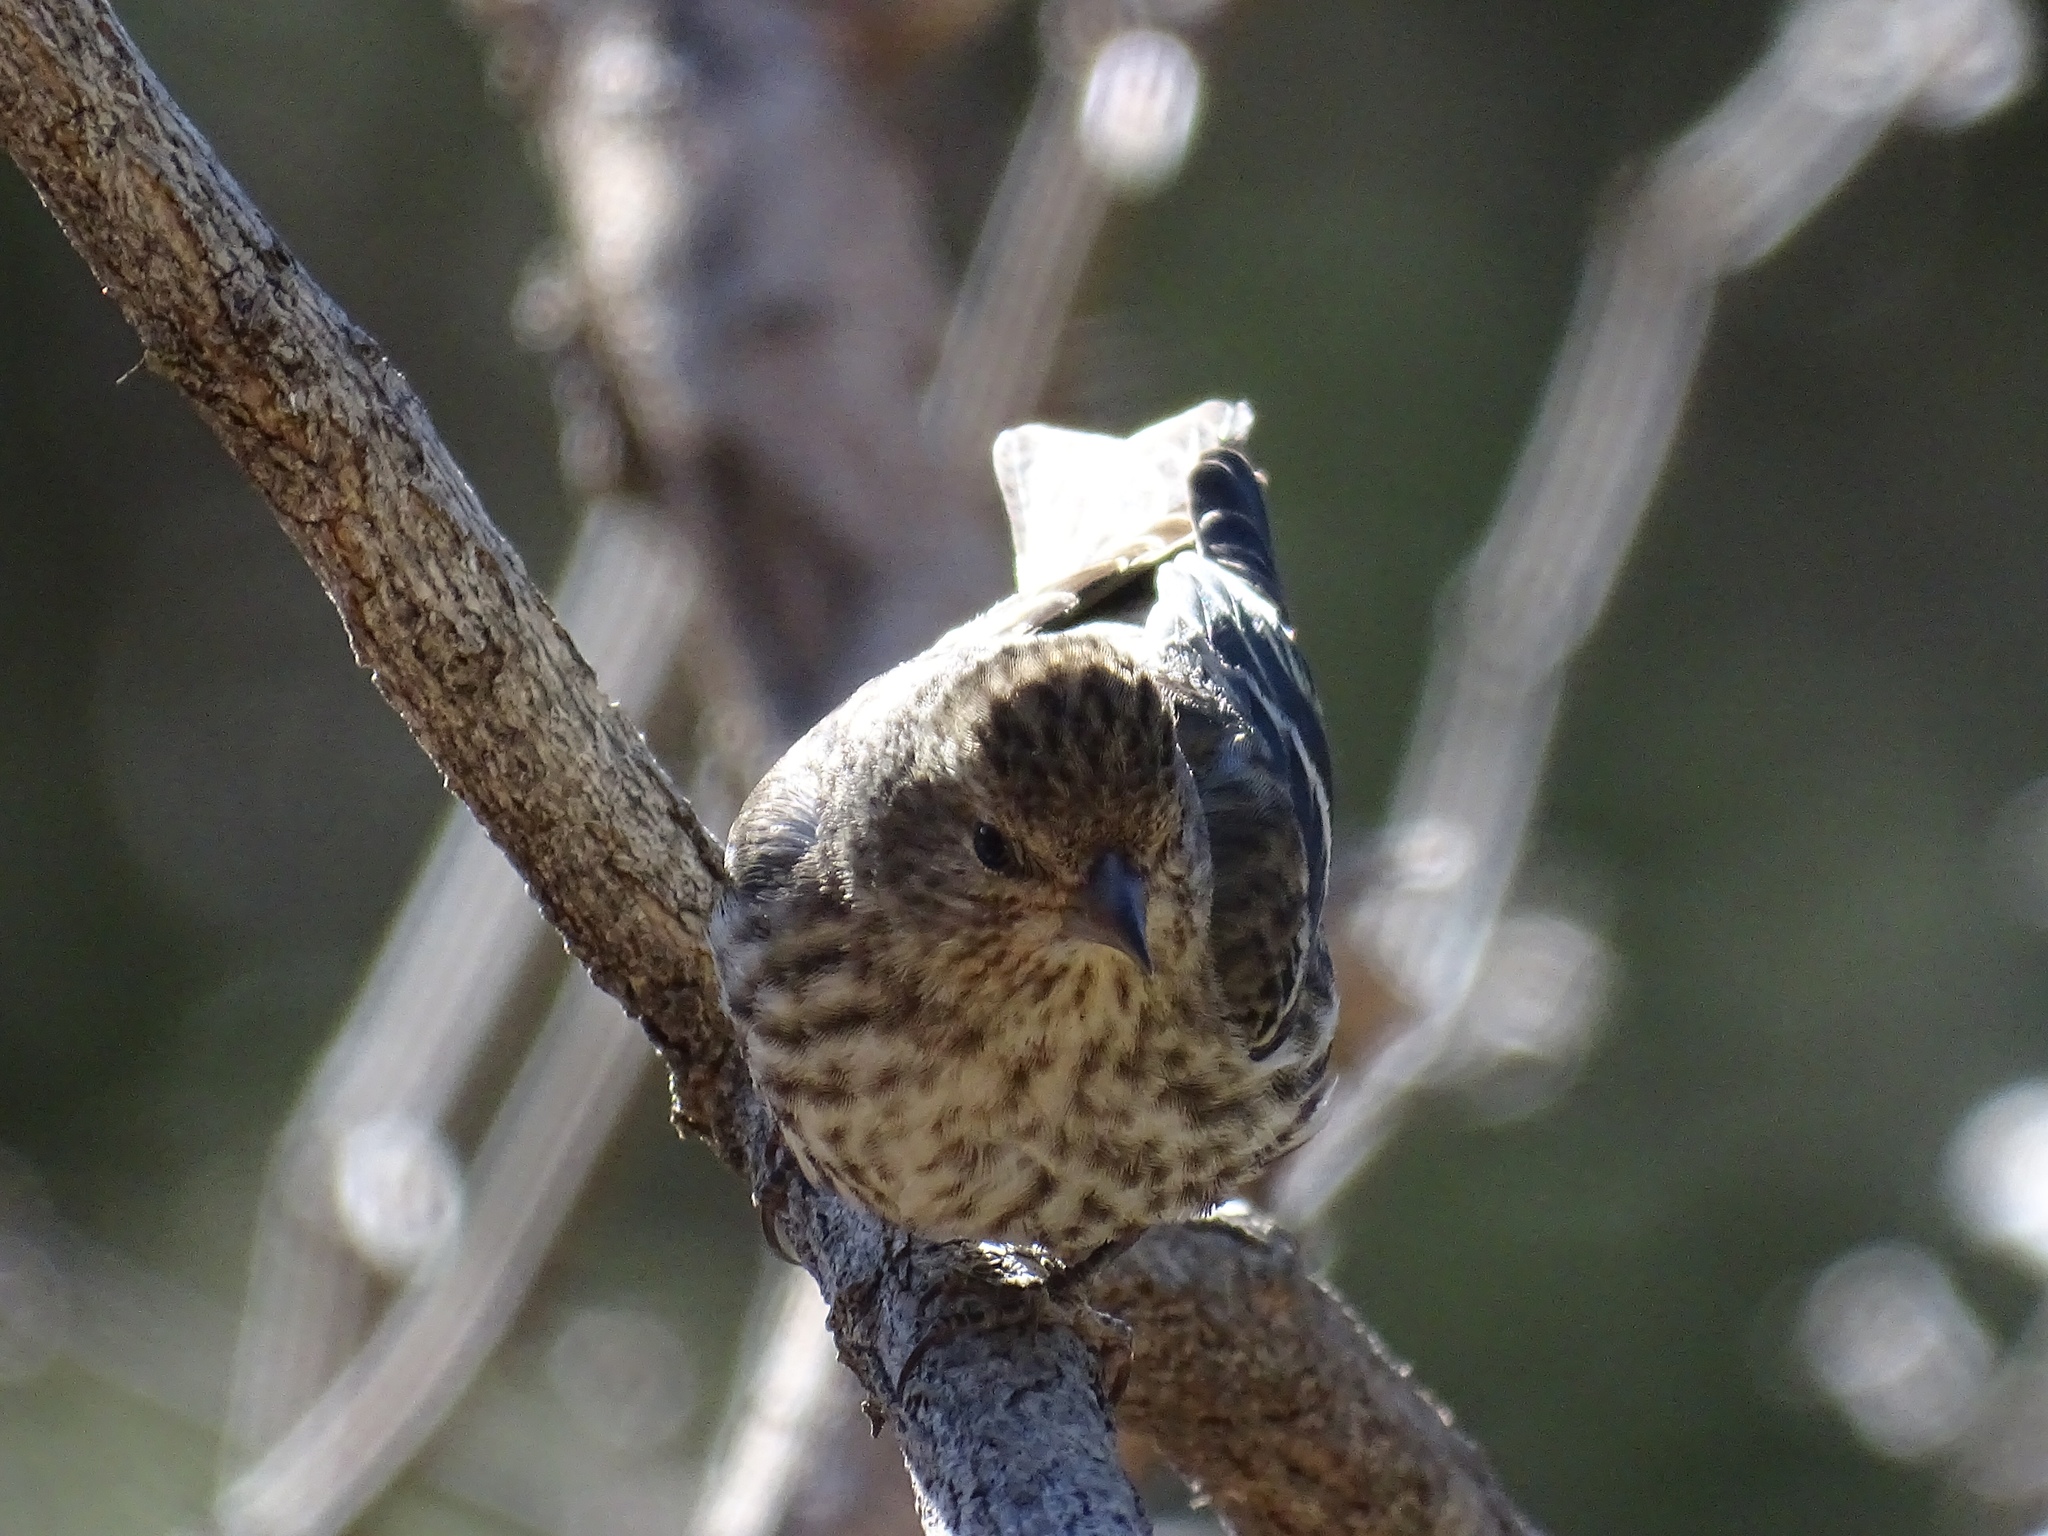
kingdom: Animalia
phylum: Chordata
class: Aves
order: Passeriformes
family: Fringillidae
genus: Spinus
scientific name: Spinus pinus
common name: Pine siskin
